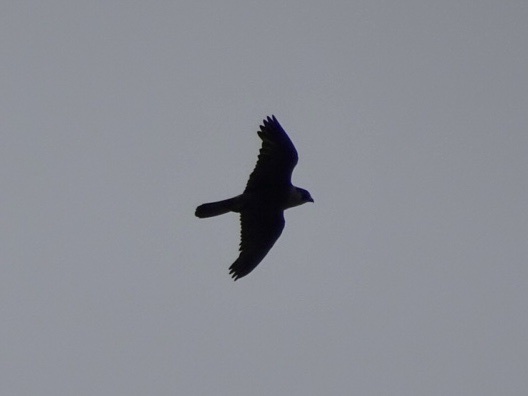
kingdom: Animalia
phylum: Chordata
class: Aves
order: Falconiformes
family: Falconidae
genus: Falco
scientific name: Falco peregrinus
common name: Peregrine falcon
